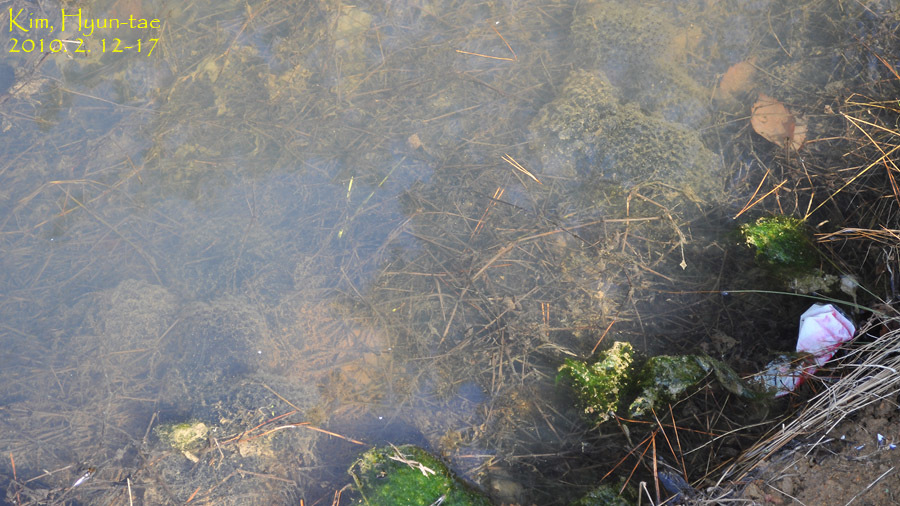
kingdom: Animalia
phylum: Chordata
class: Amphibia
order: Anura
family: Ranidae
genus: Rana
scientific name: Rana uenoi
